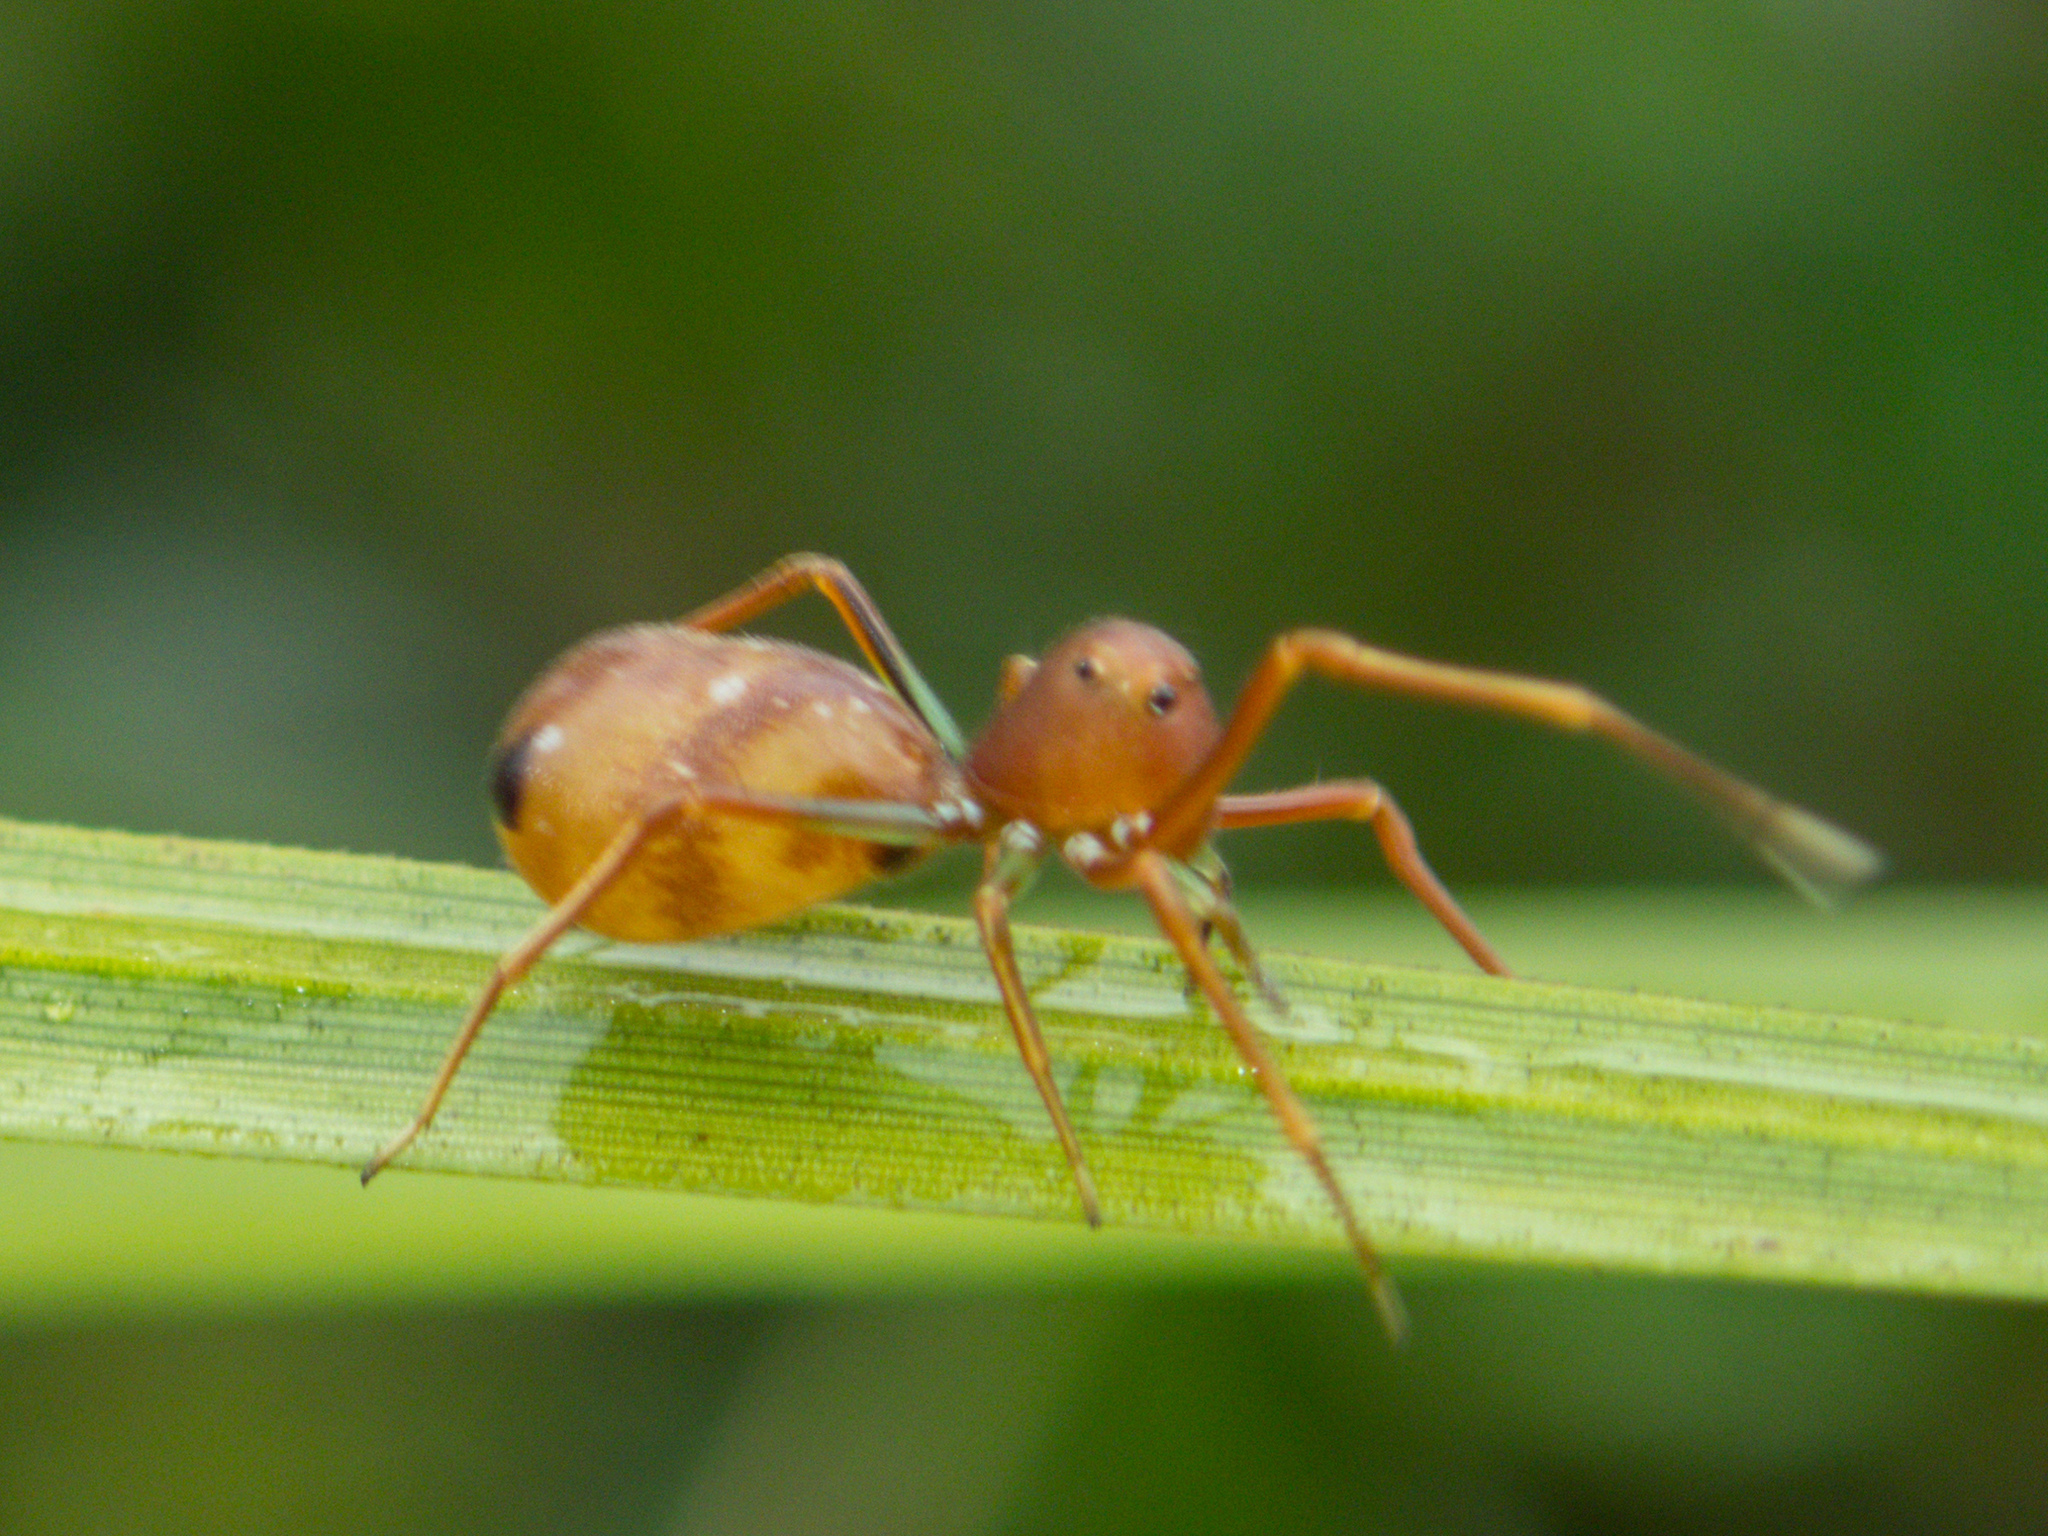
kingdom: Animalia
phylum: Arthropoda
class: Arachnida
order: Araneae
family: Thomisidae
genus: Amyciaea
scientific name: Amyciaea forticeps
